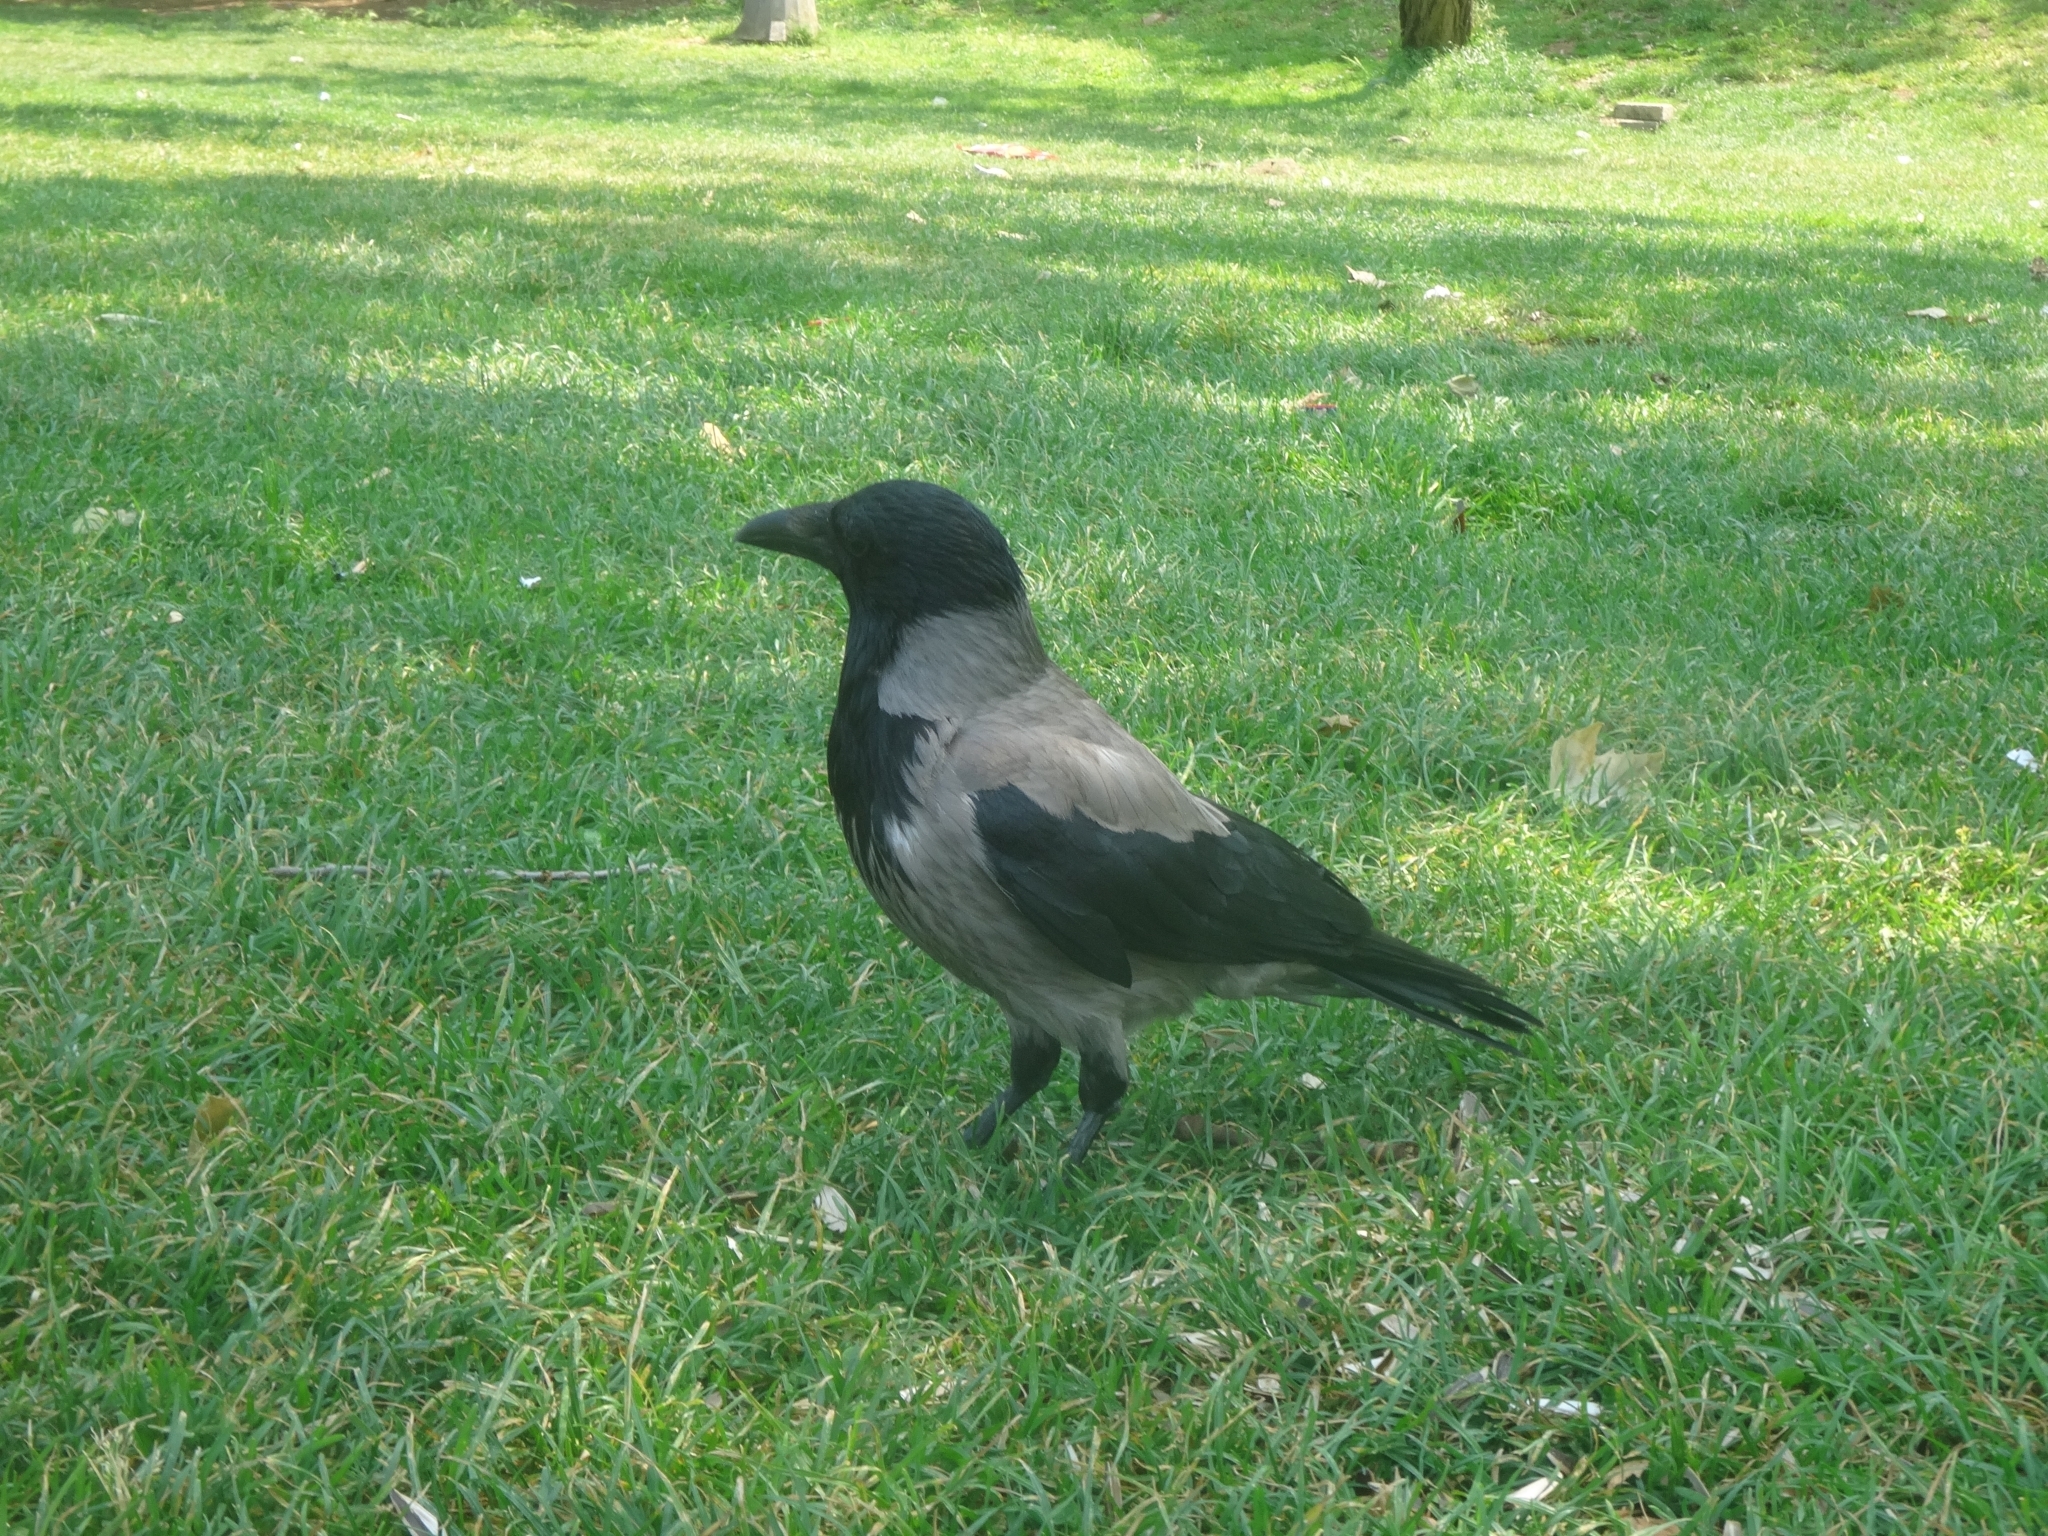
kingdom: Animalia
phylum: Chordata
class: Aves
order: Passeriformes
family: Corvidae
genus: Corvus
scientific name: Corvus cornix
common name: Hooded crow
